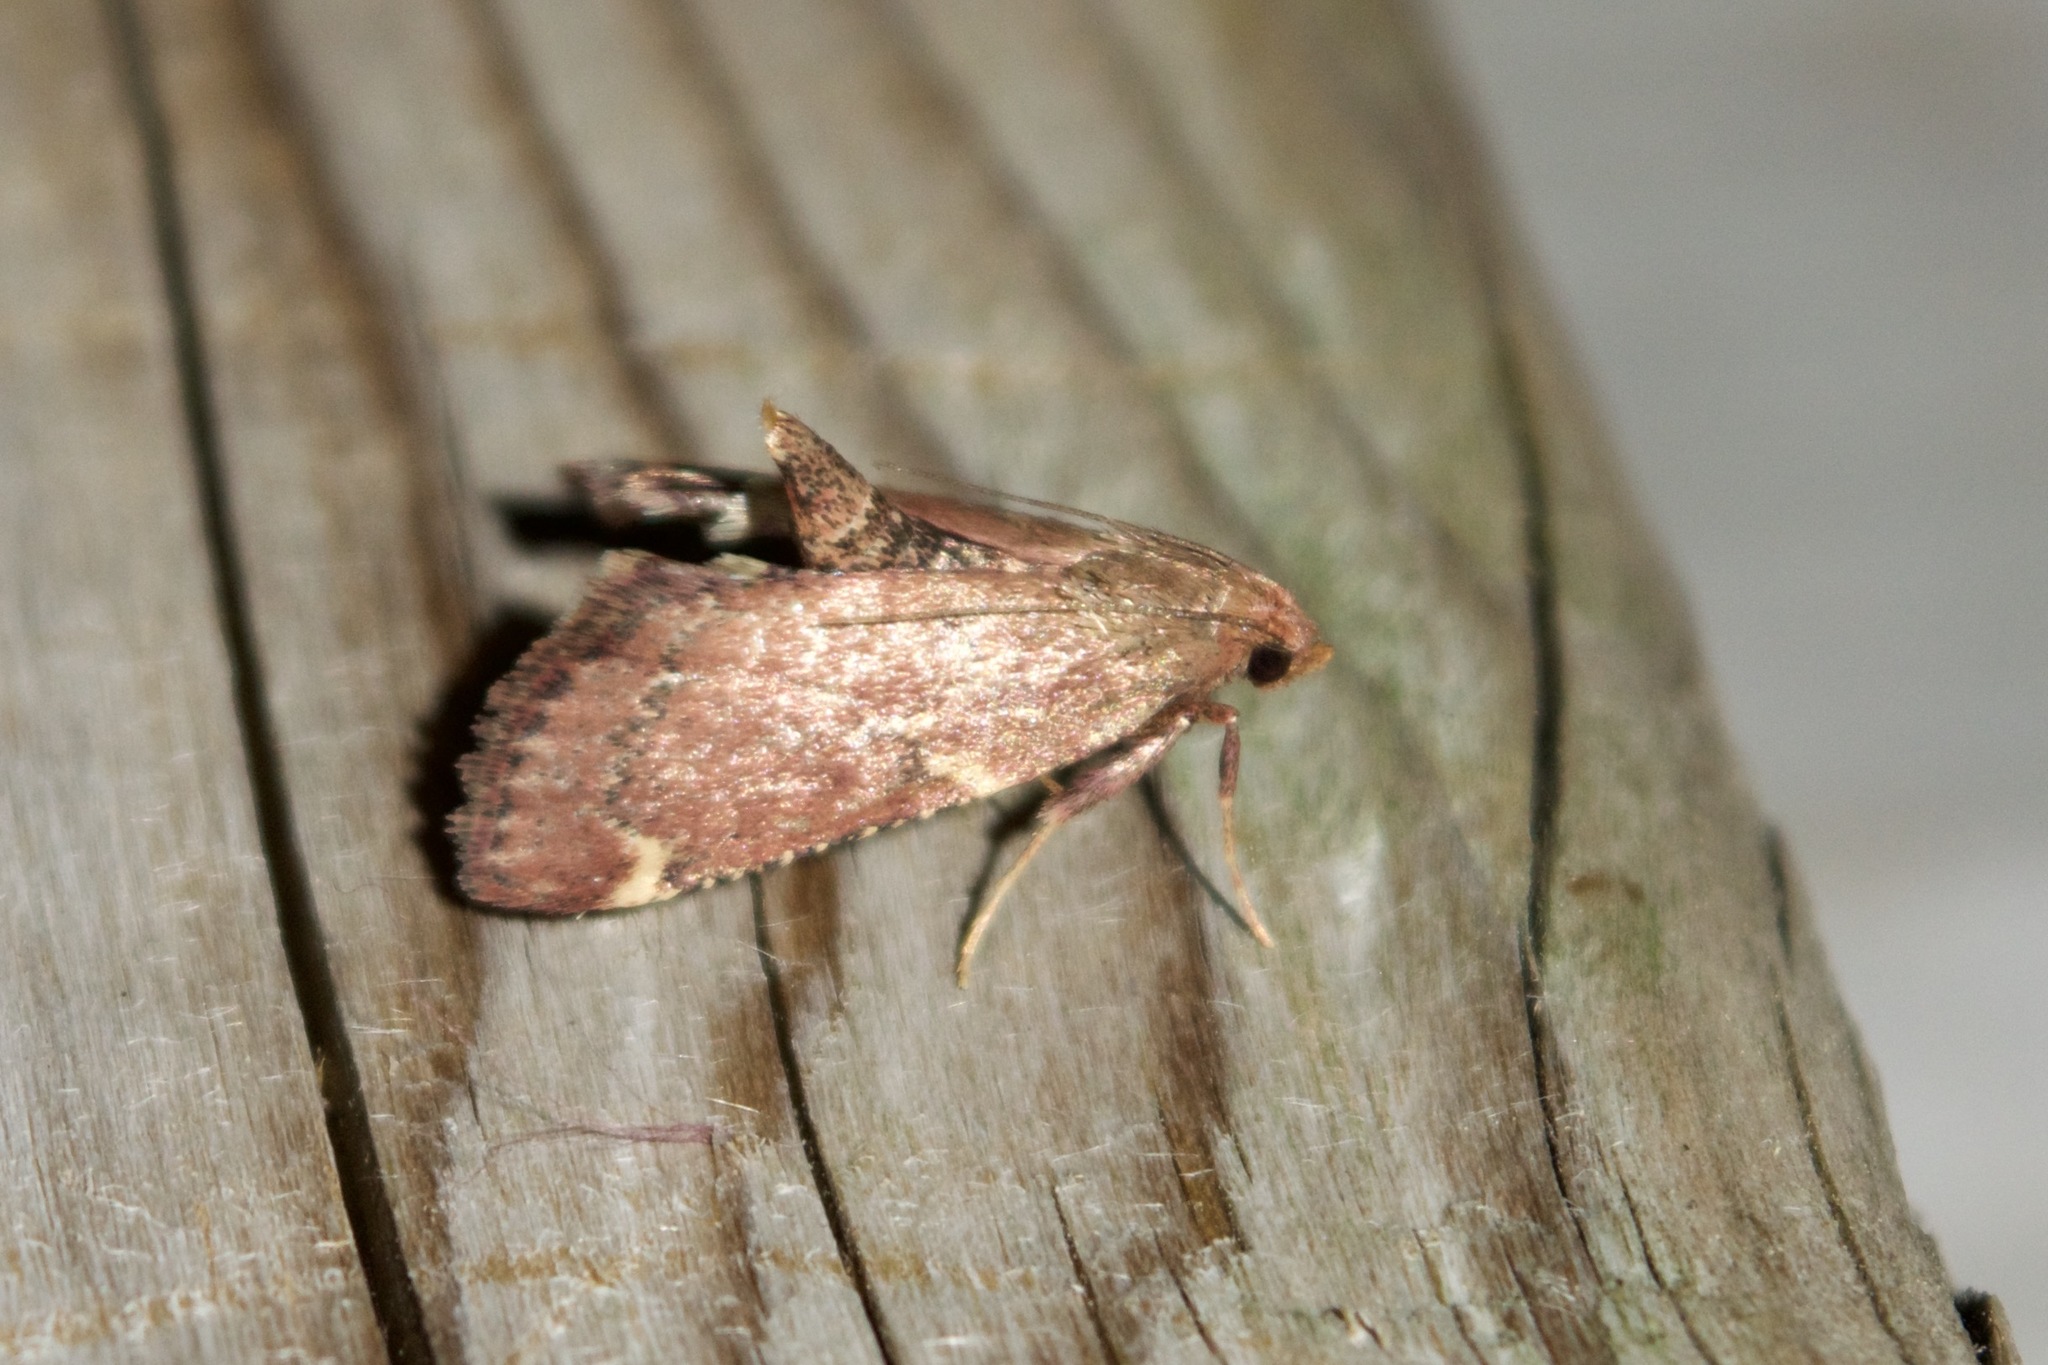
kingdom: Animalia
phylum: Arthropoda
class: Insecta
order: Lepidoptera
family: Pyralidae
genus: Hypsopygia
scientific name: Hypsopygia intermedialis
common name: Red-shawled moth
